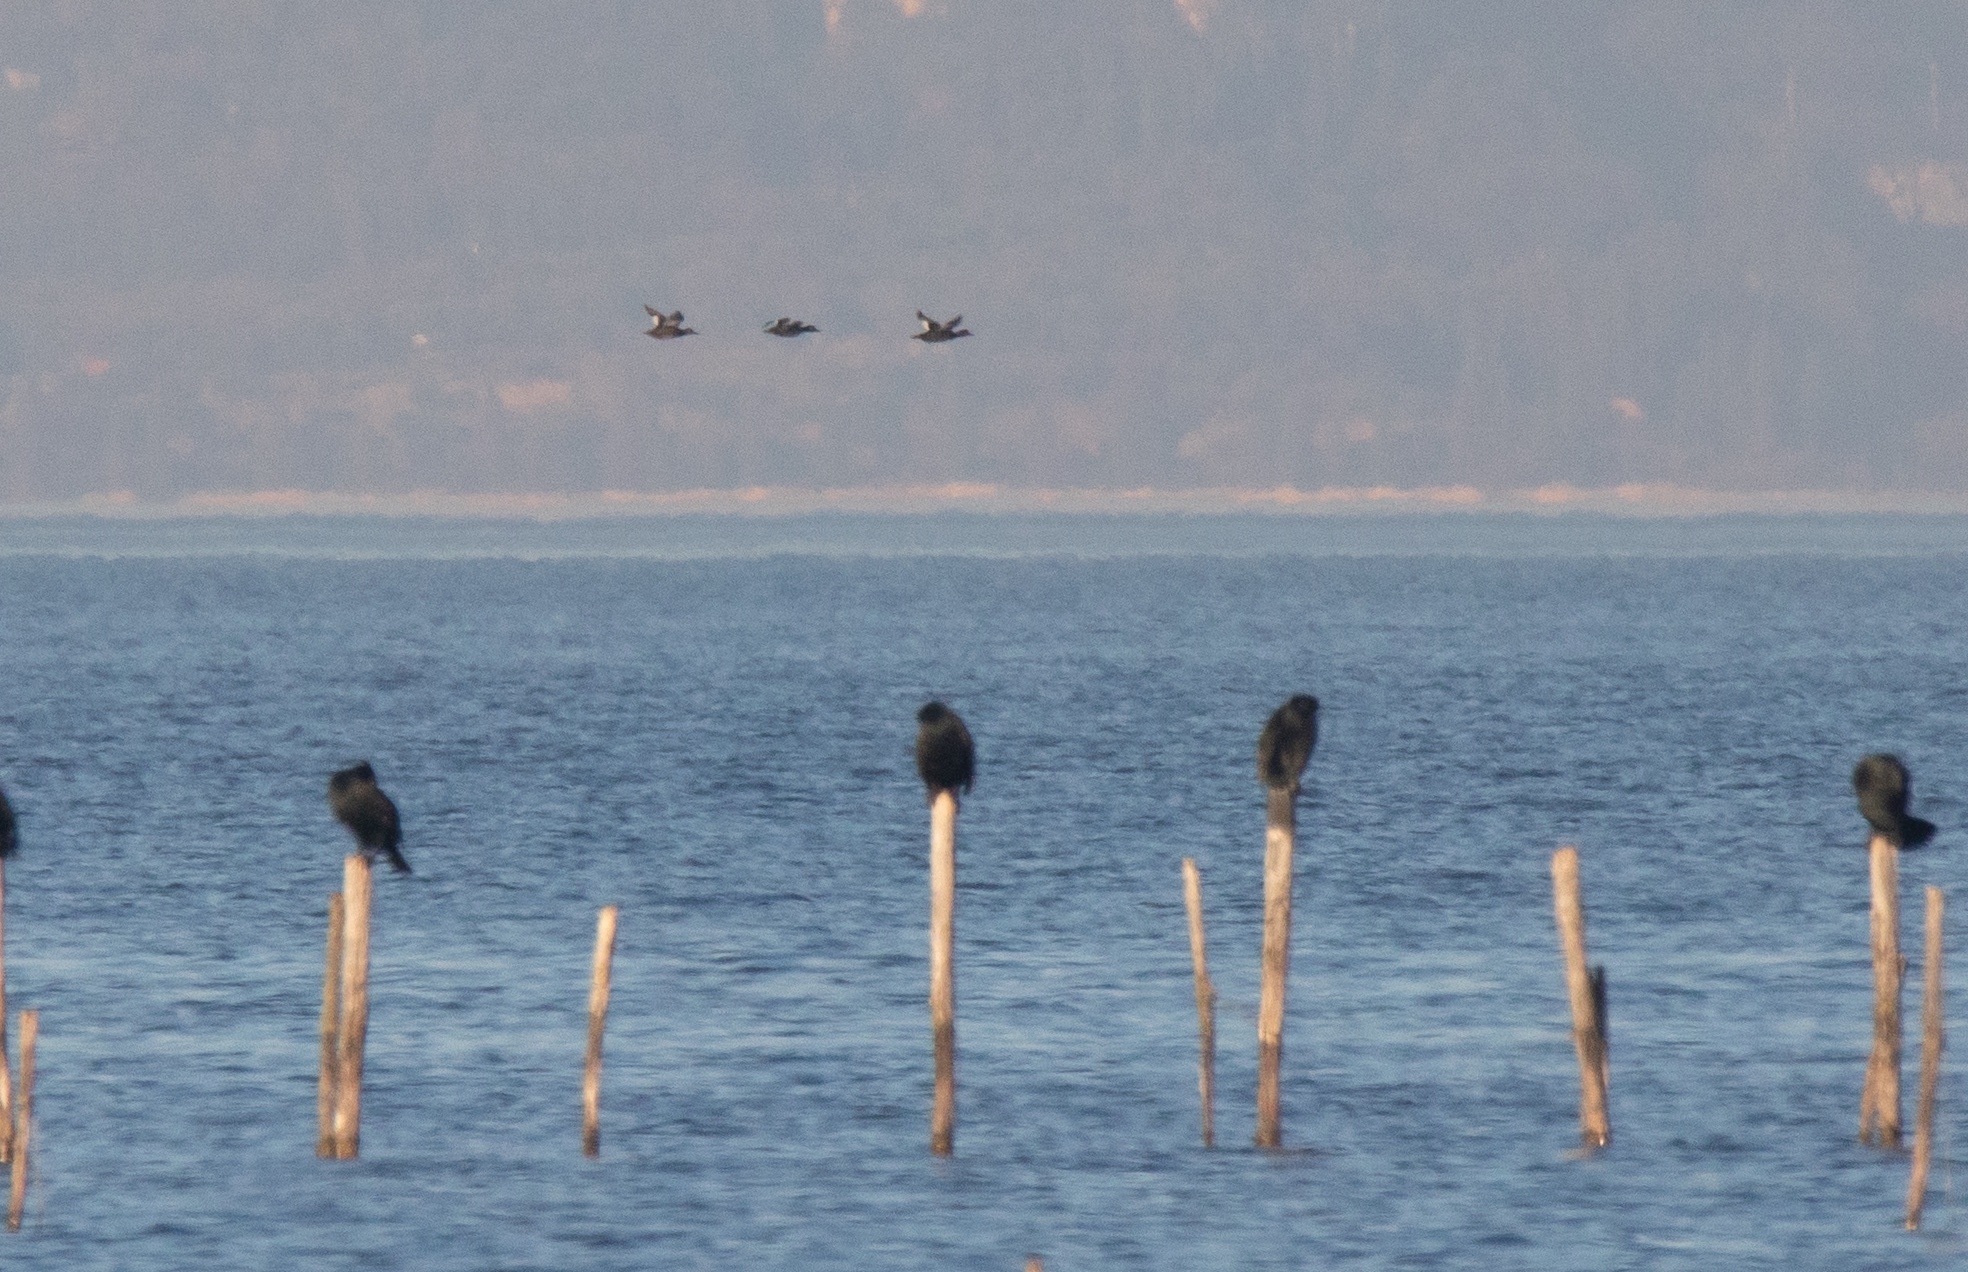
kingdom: Animalia
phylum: Chordata
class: Aves
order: Anseriformes
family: Anatidae
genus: Melanitta
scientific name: Melanitta fusca
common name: Velvet scoter
